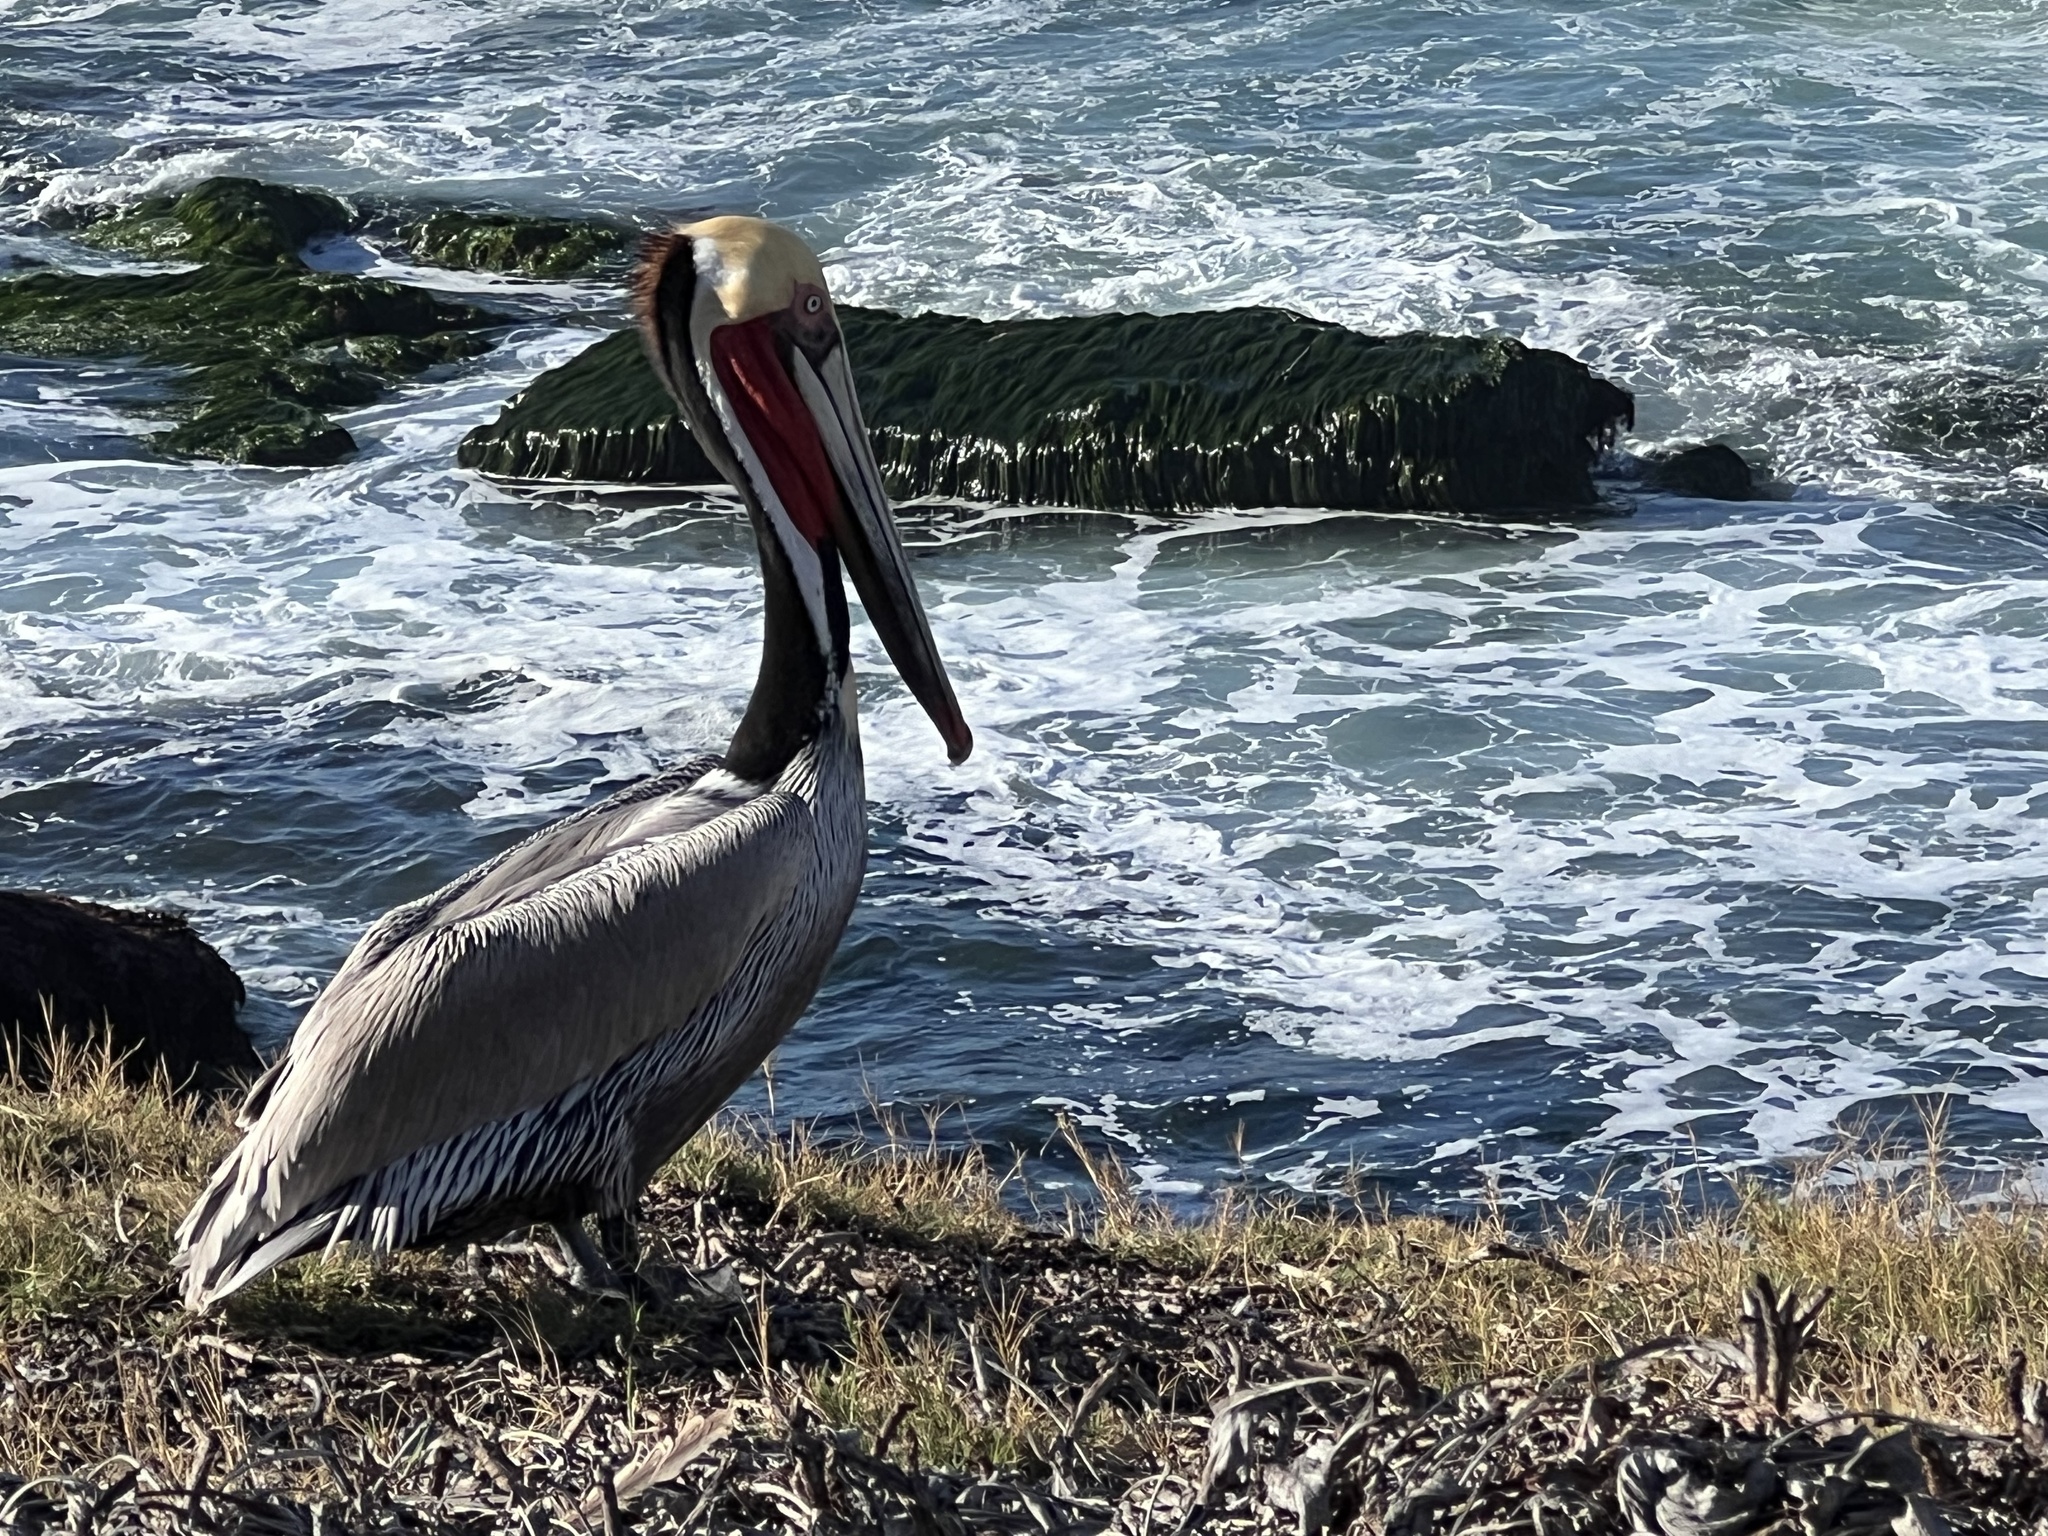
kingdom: Animalia
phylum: Chordata
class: Aves
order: Pelecaniformes
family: Pelecanidae
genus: Pelecanus
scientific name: Pelecanus occidentalis
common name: Brown pelican
